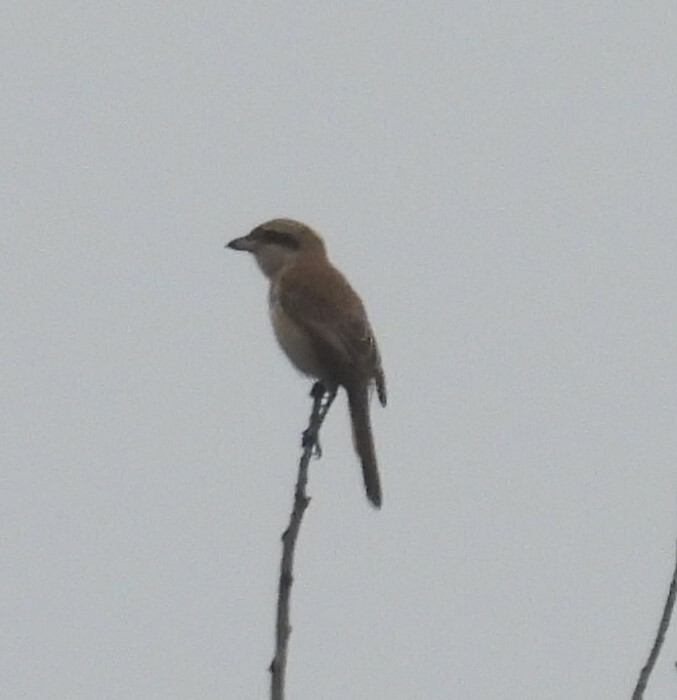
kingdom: Animalia
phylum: Chordata
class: Aves
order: Passeriformes
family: Laniidae
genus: Lanius
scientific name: Lanius cristatus
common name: Brown shrike
